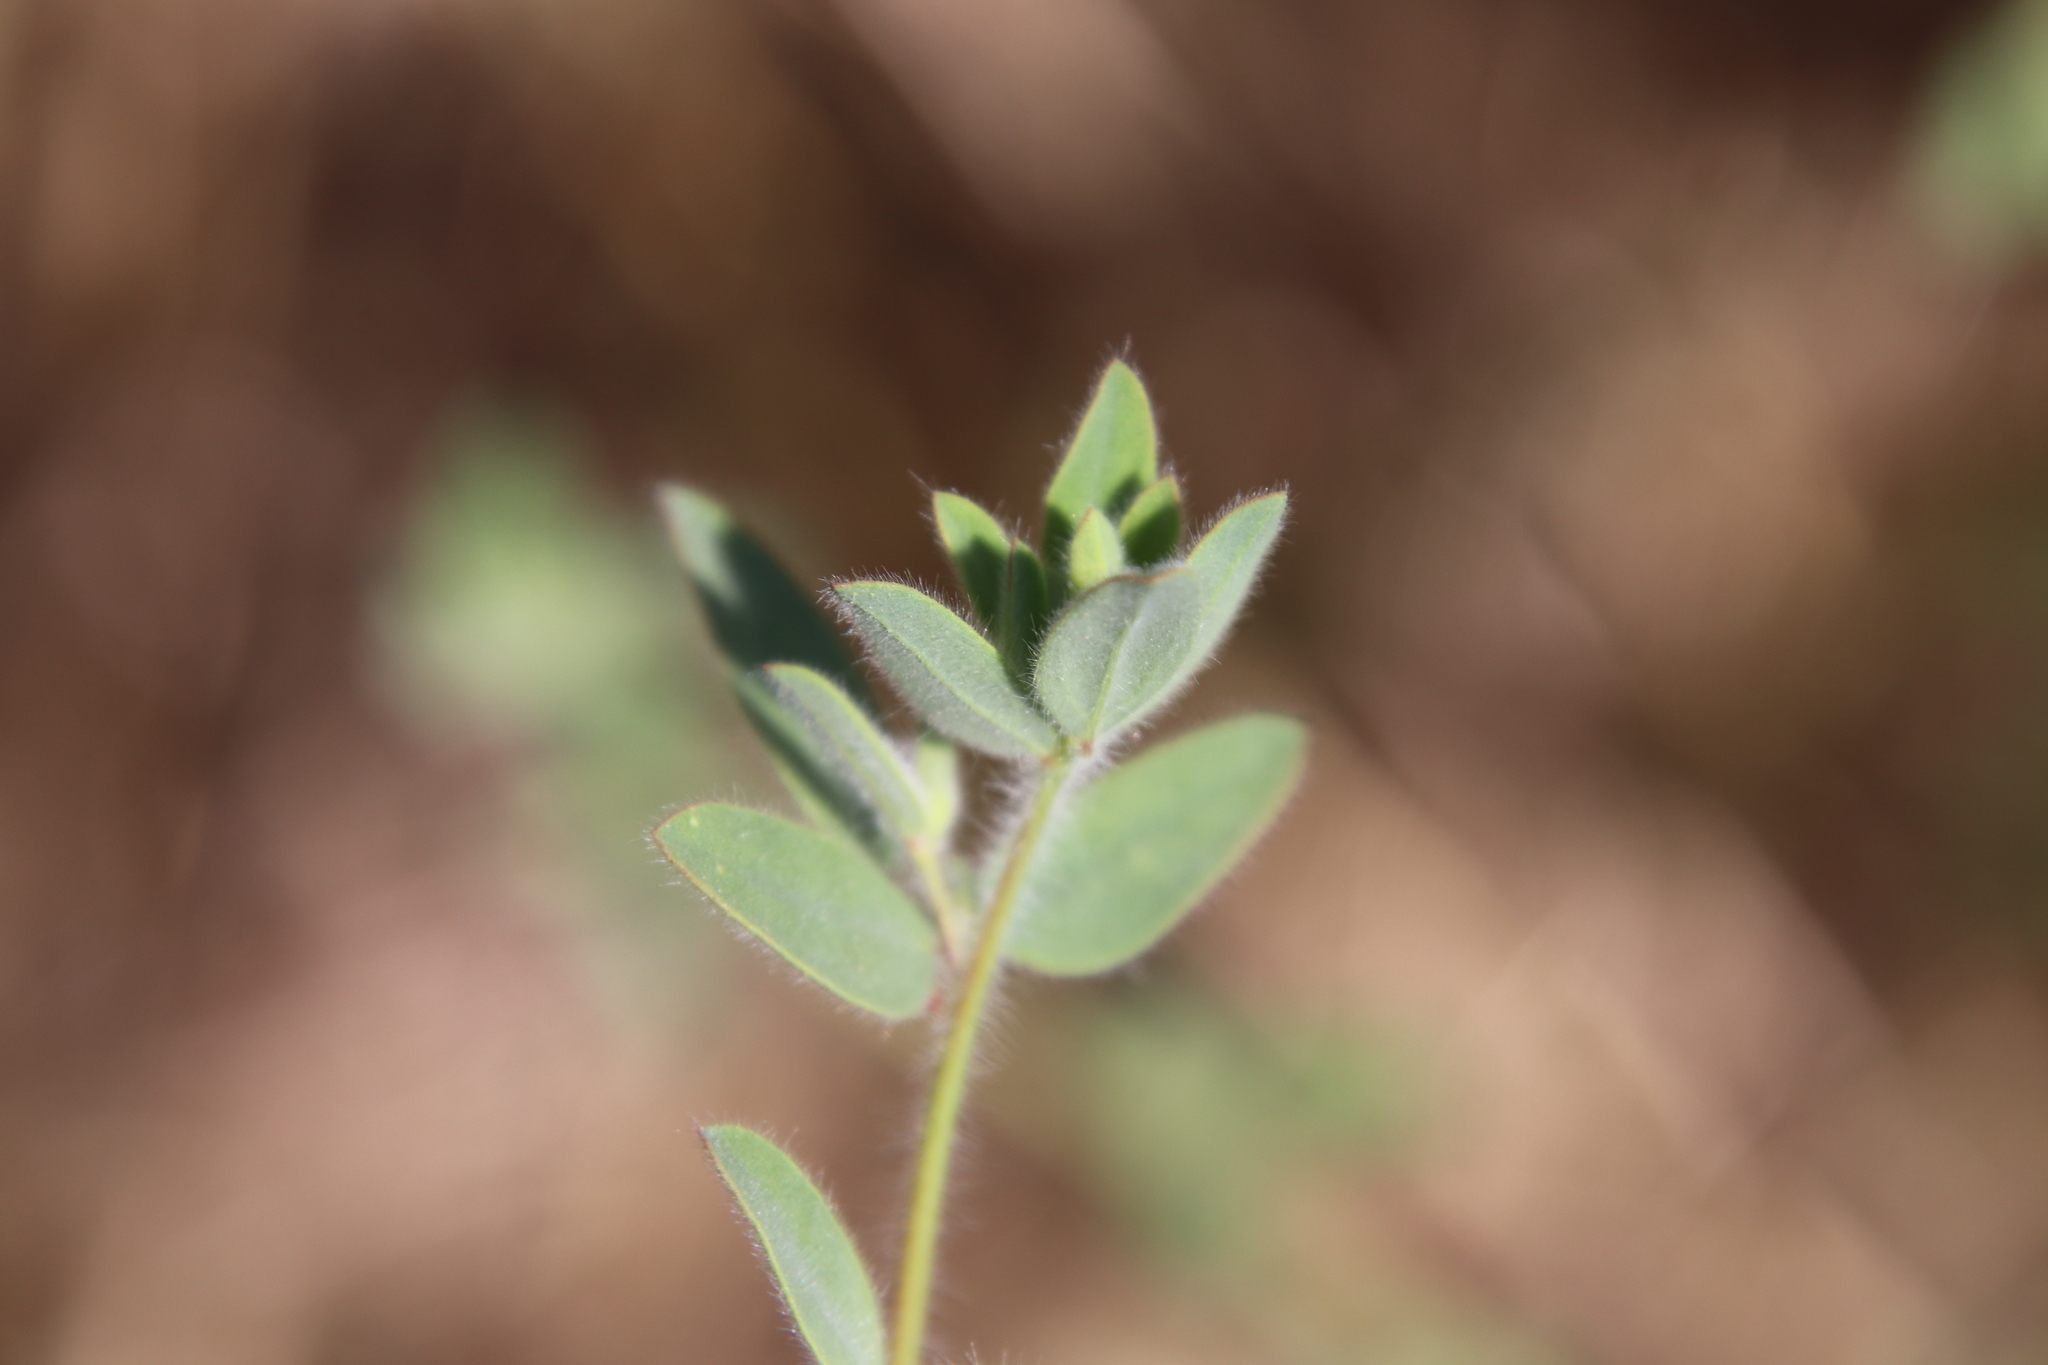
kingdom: Plantae
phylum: Tracheophyta
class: Magnoliopsida
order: Fabales
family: Fabaceae
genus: Acmispon
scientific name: Acmispon americanus
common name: American bird's-foot trefoil
